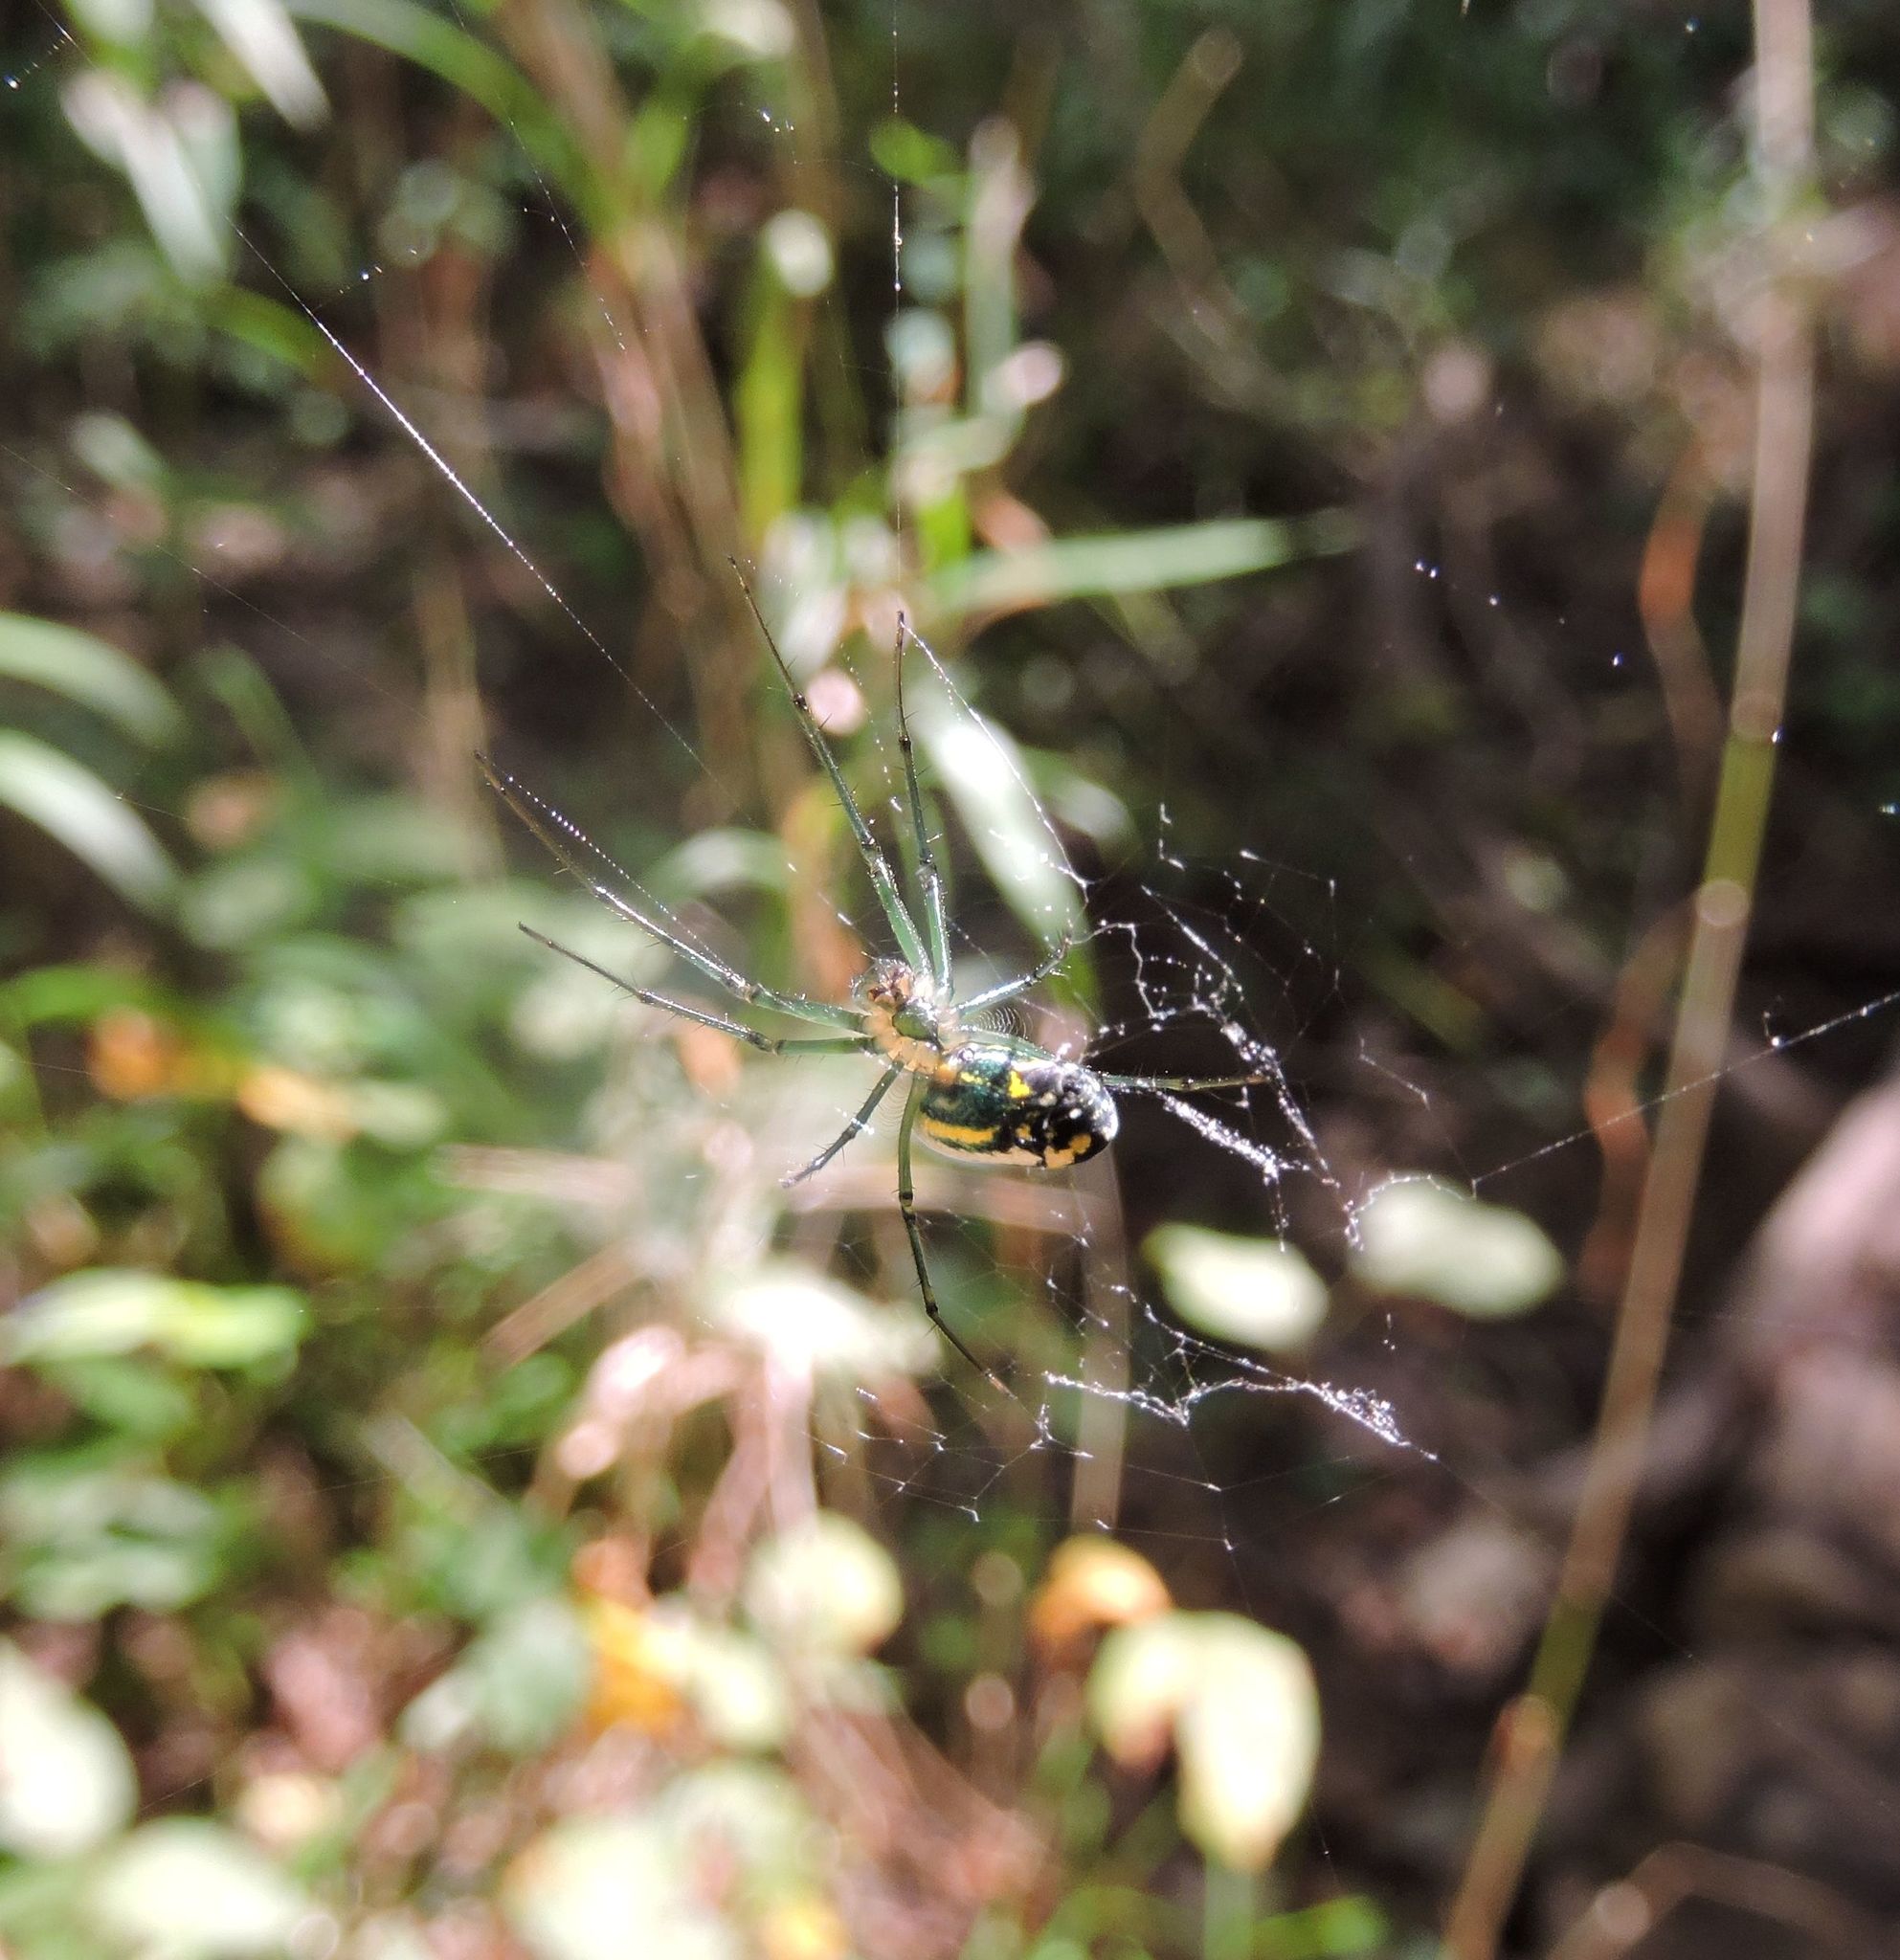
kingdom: Animalia
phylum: Arthropoda
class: Arachnida
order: Araneae
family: Tetragnathidae
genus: Leucauge
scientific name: Leucauge venusta
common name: Longjawed orb weavers
